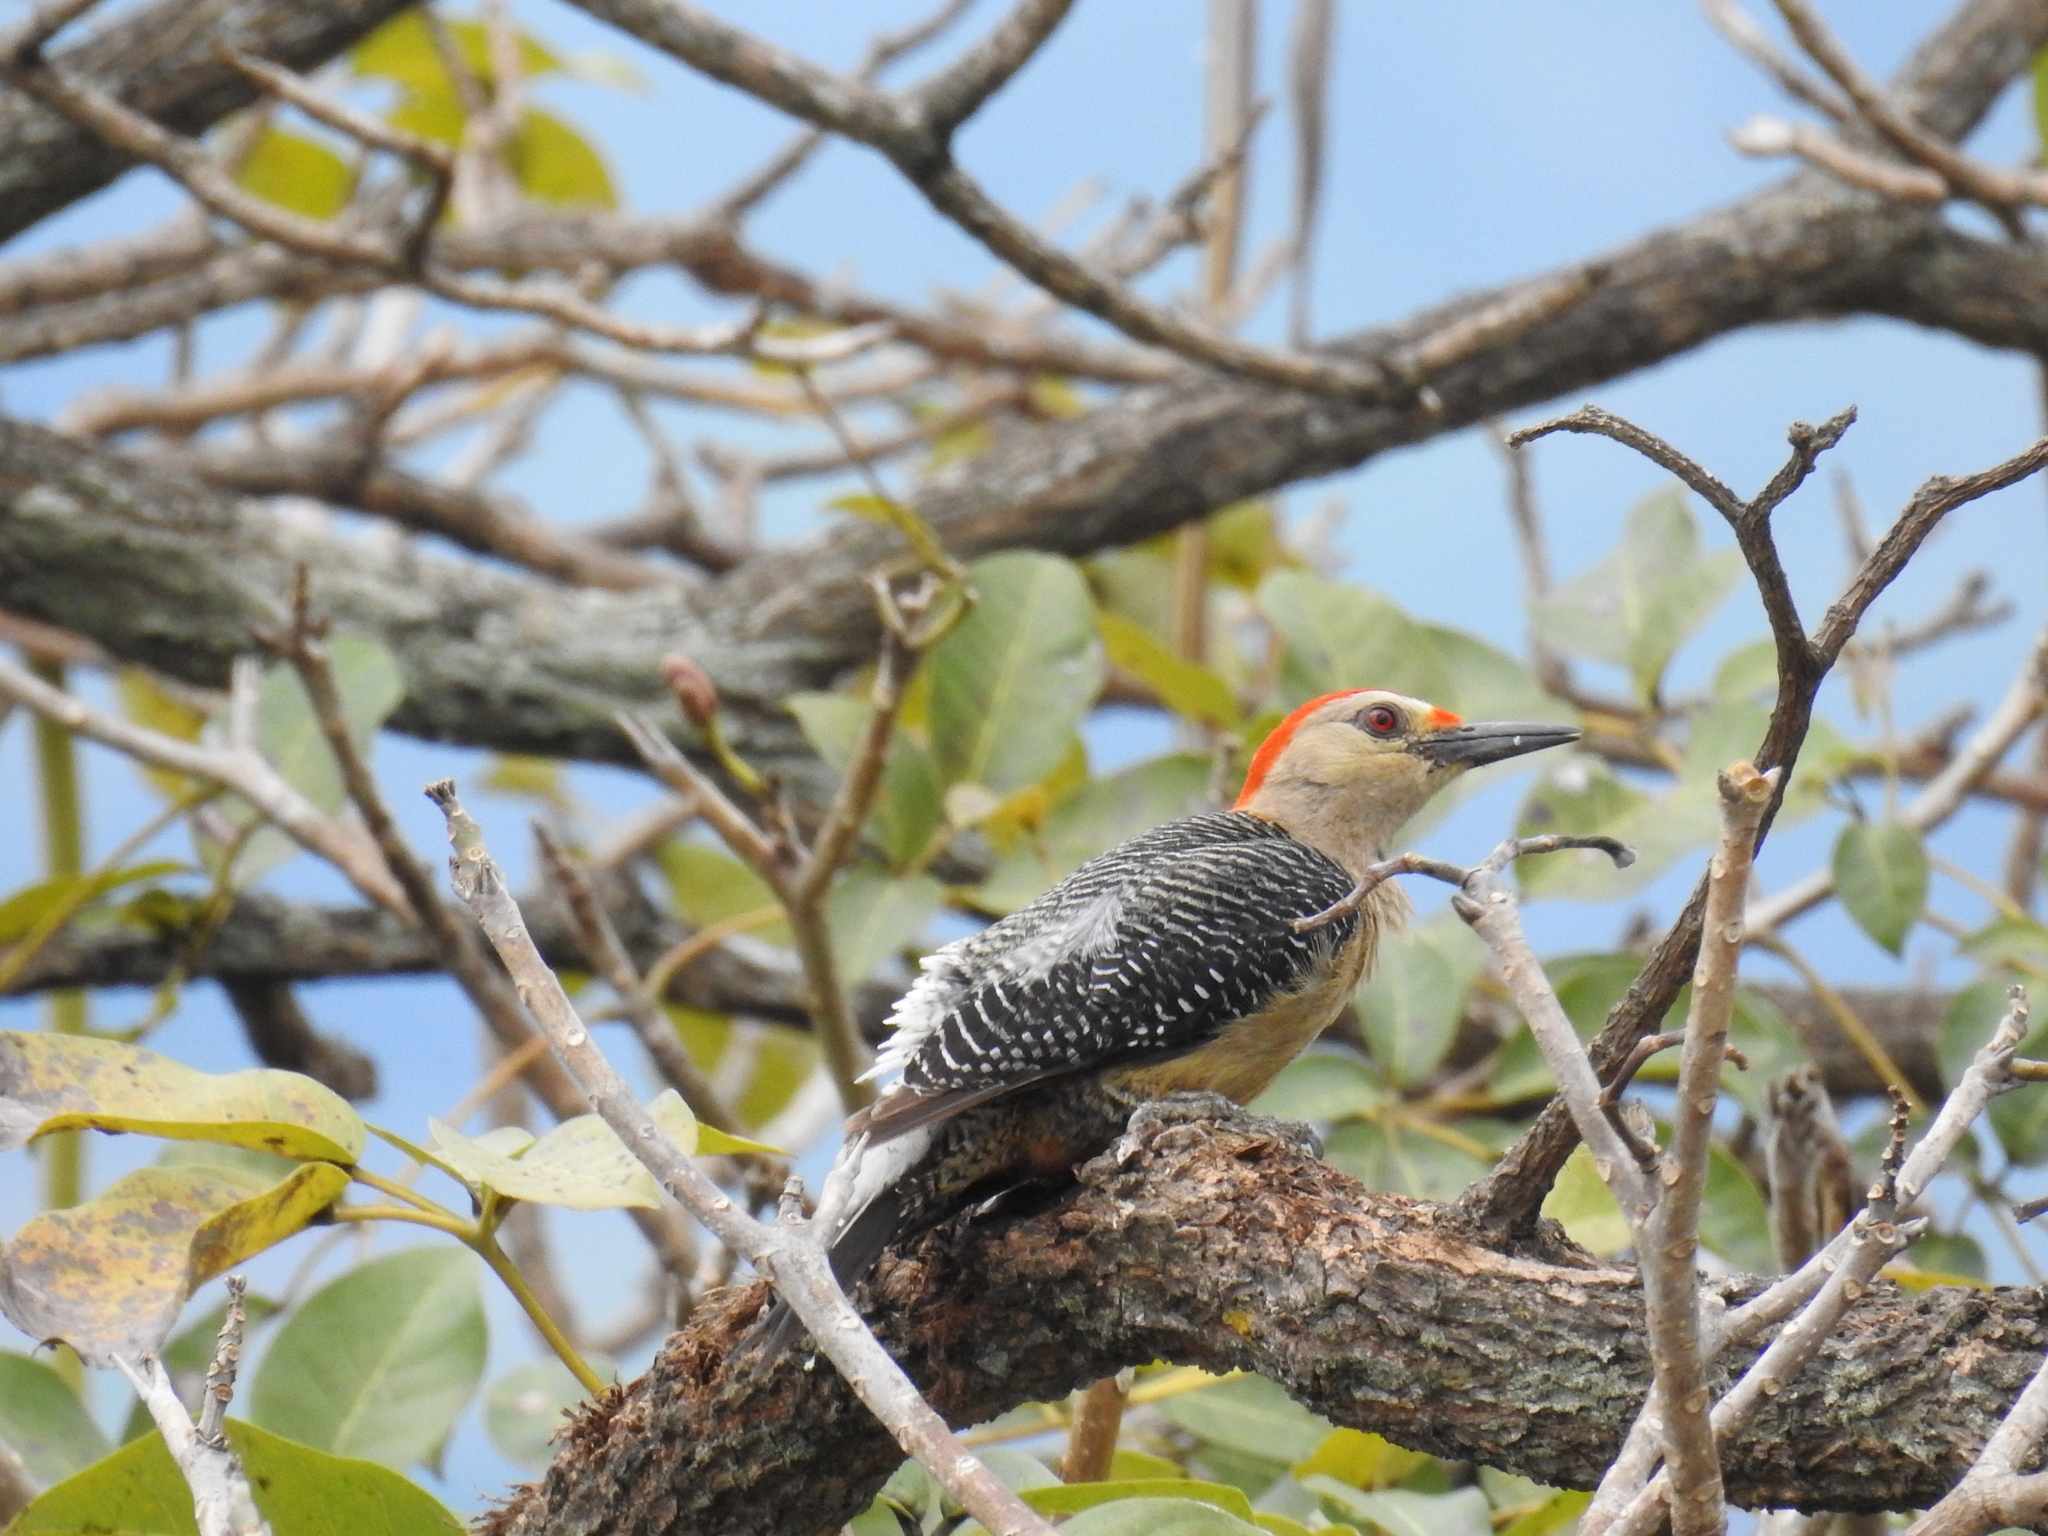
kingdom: Animalia
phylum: Chordata
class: Aves
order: Piciformes
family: Picidae
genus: Melanerpes
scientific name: Melanerpes aurifrons
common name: Golden-fronted woodpecker
